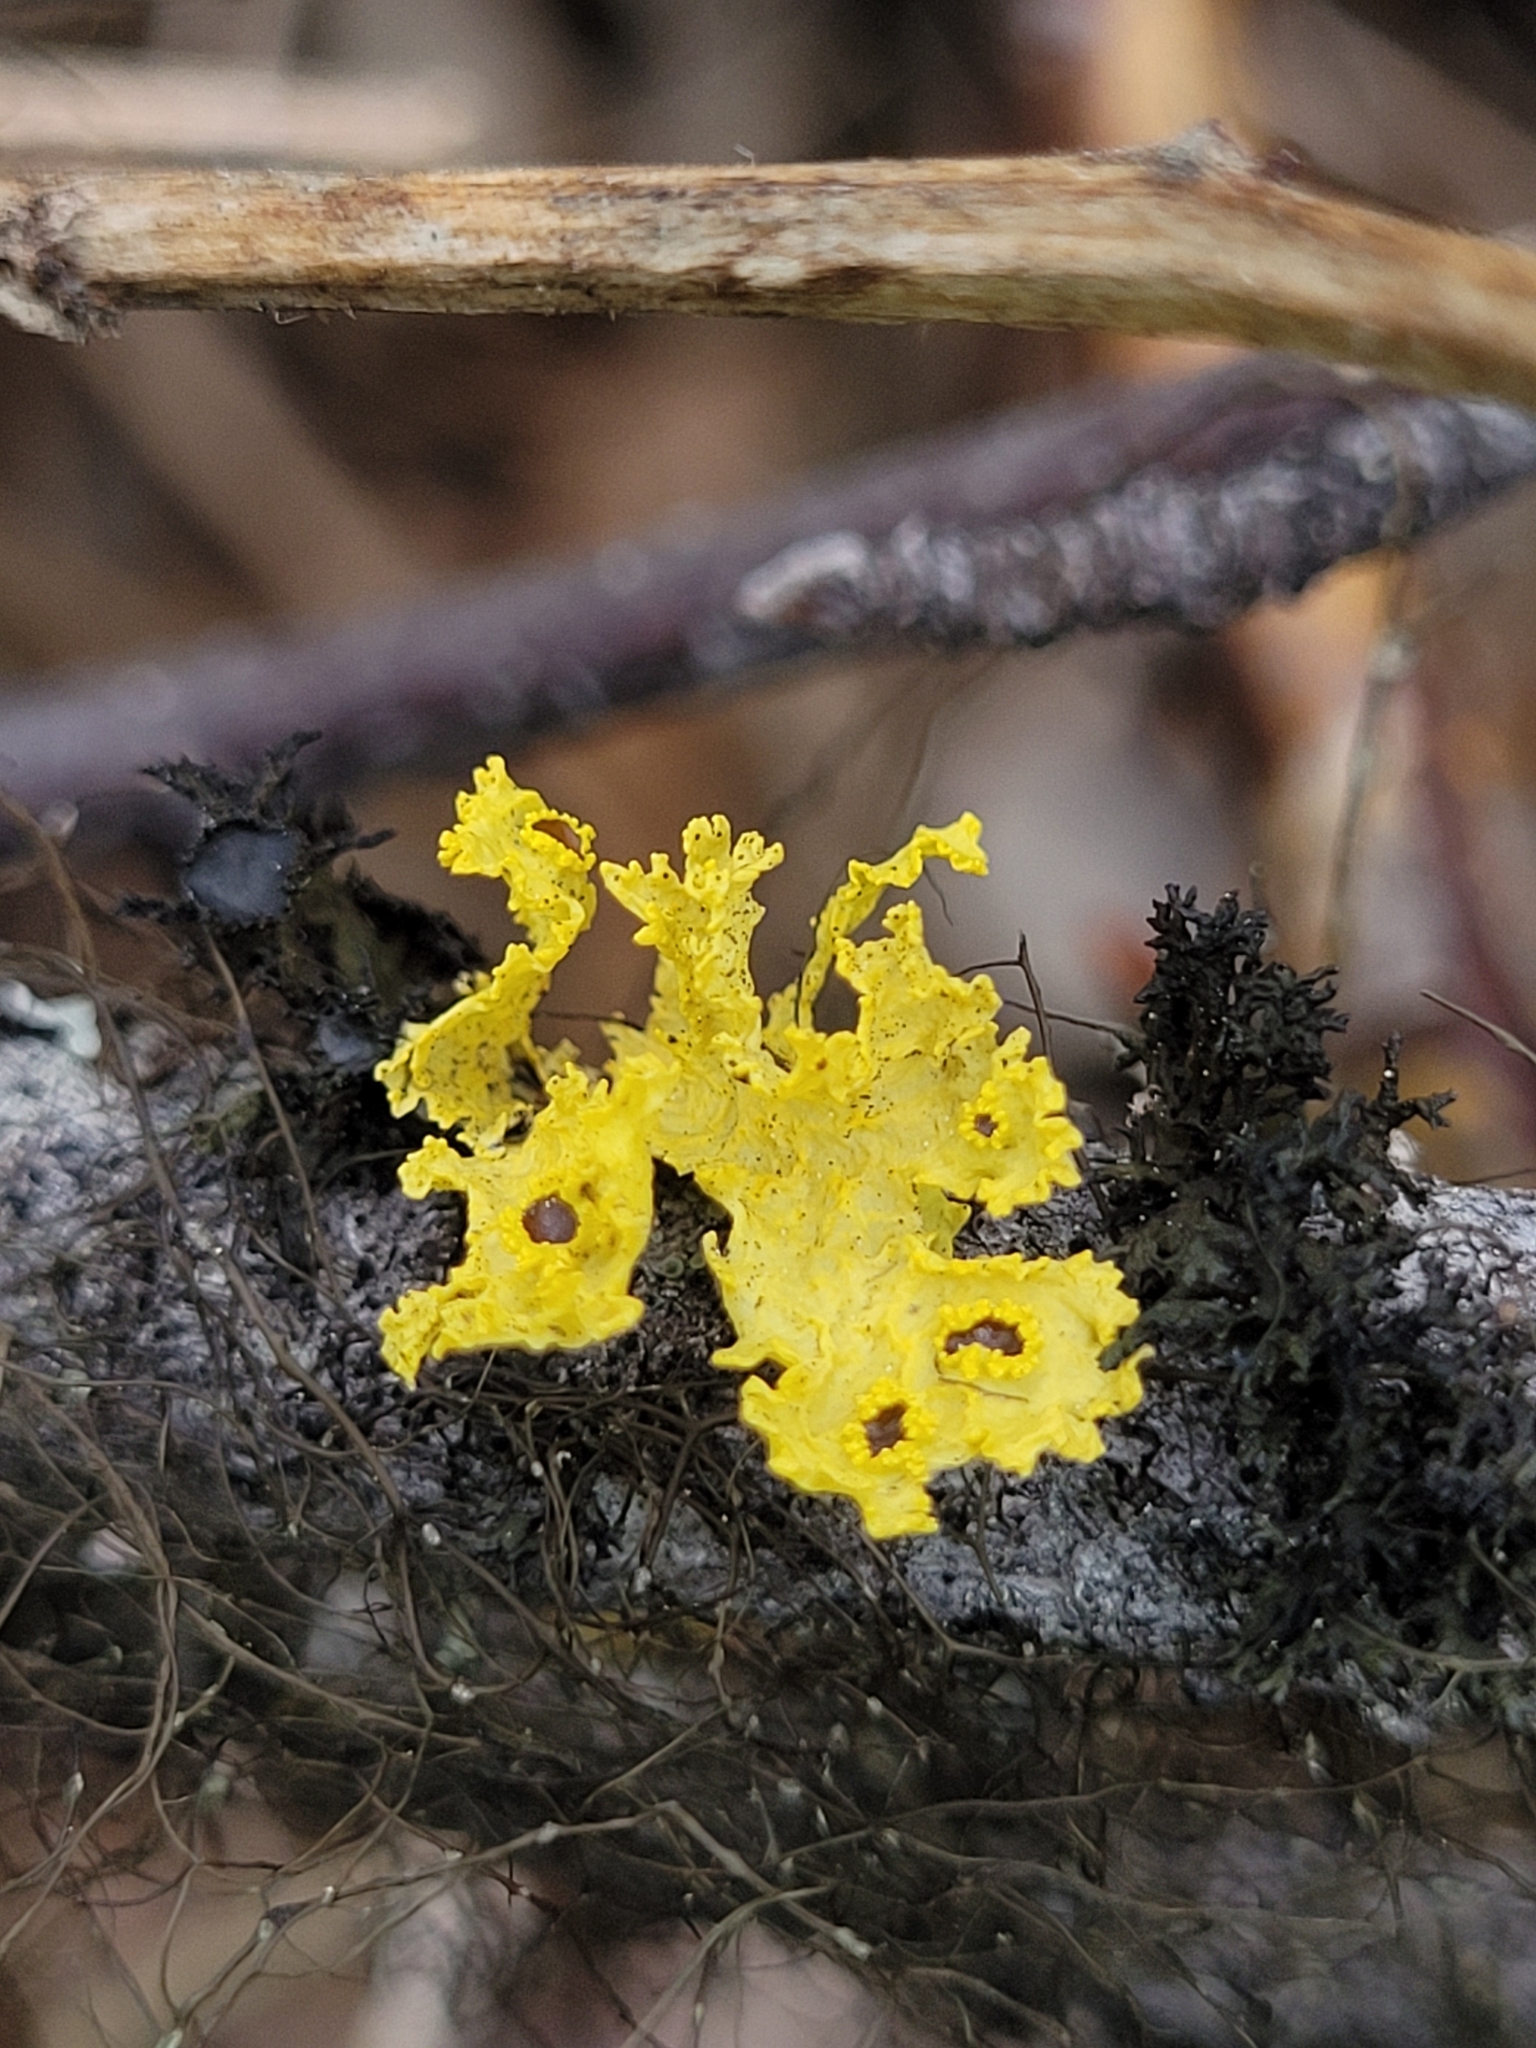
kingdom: Fungi
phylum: Ascomycota
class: Lecanoromycetes
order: Lecanorales
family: Parmeliaceae
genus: Vulpicida
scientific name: Vulpicida canadensis
